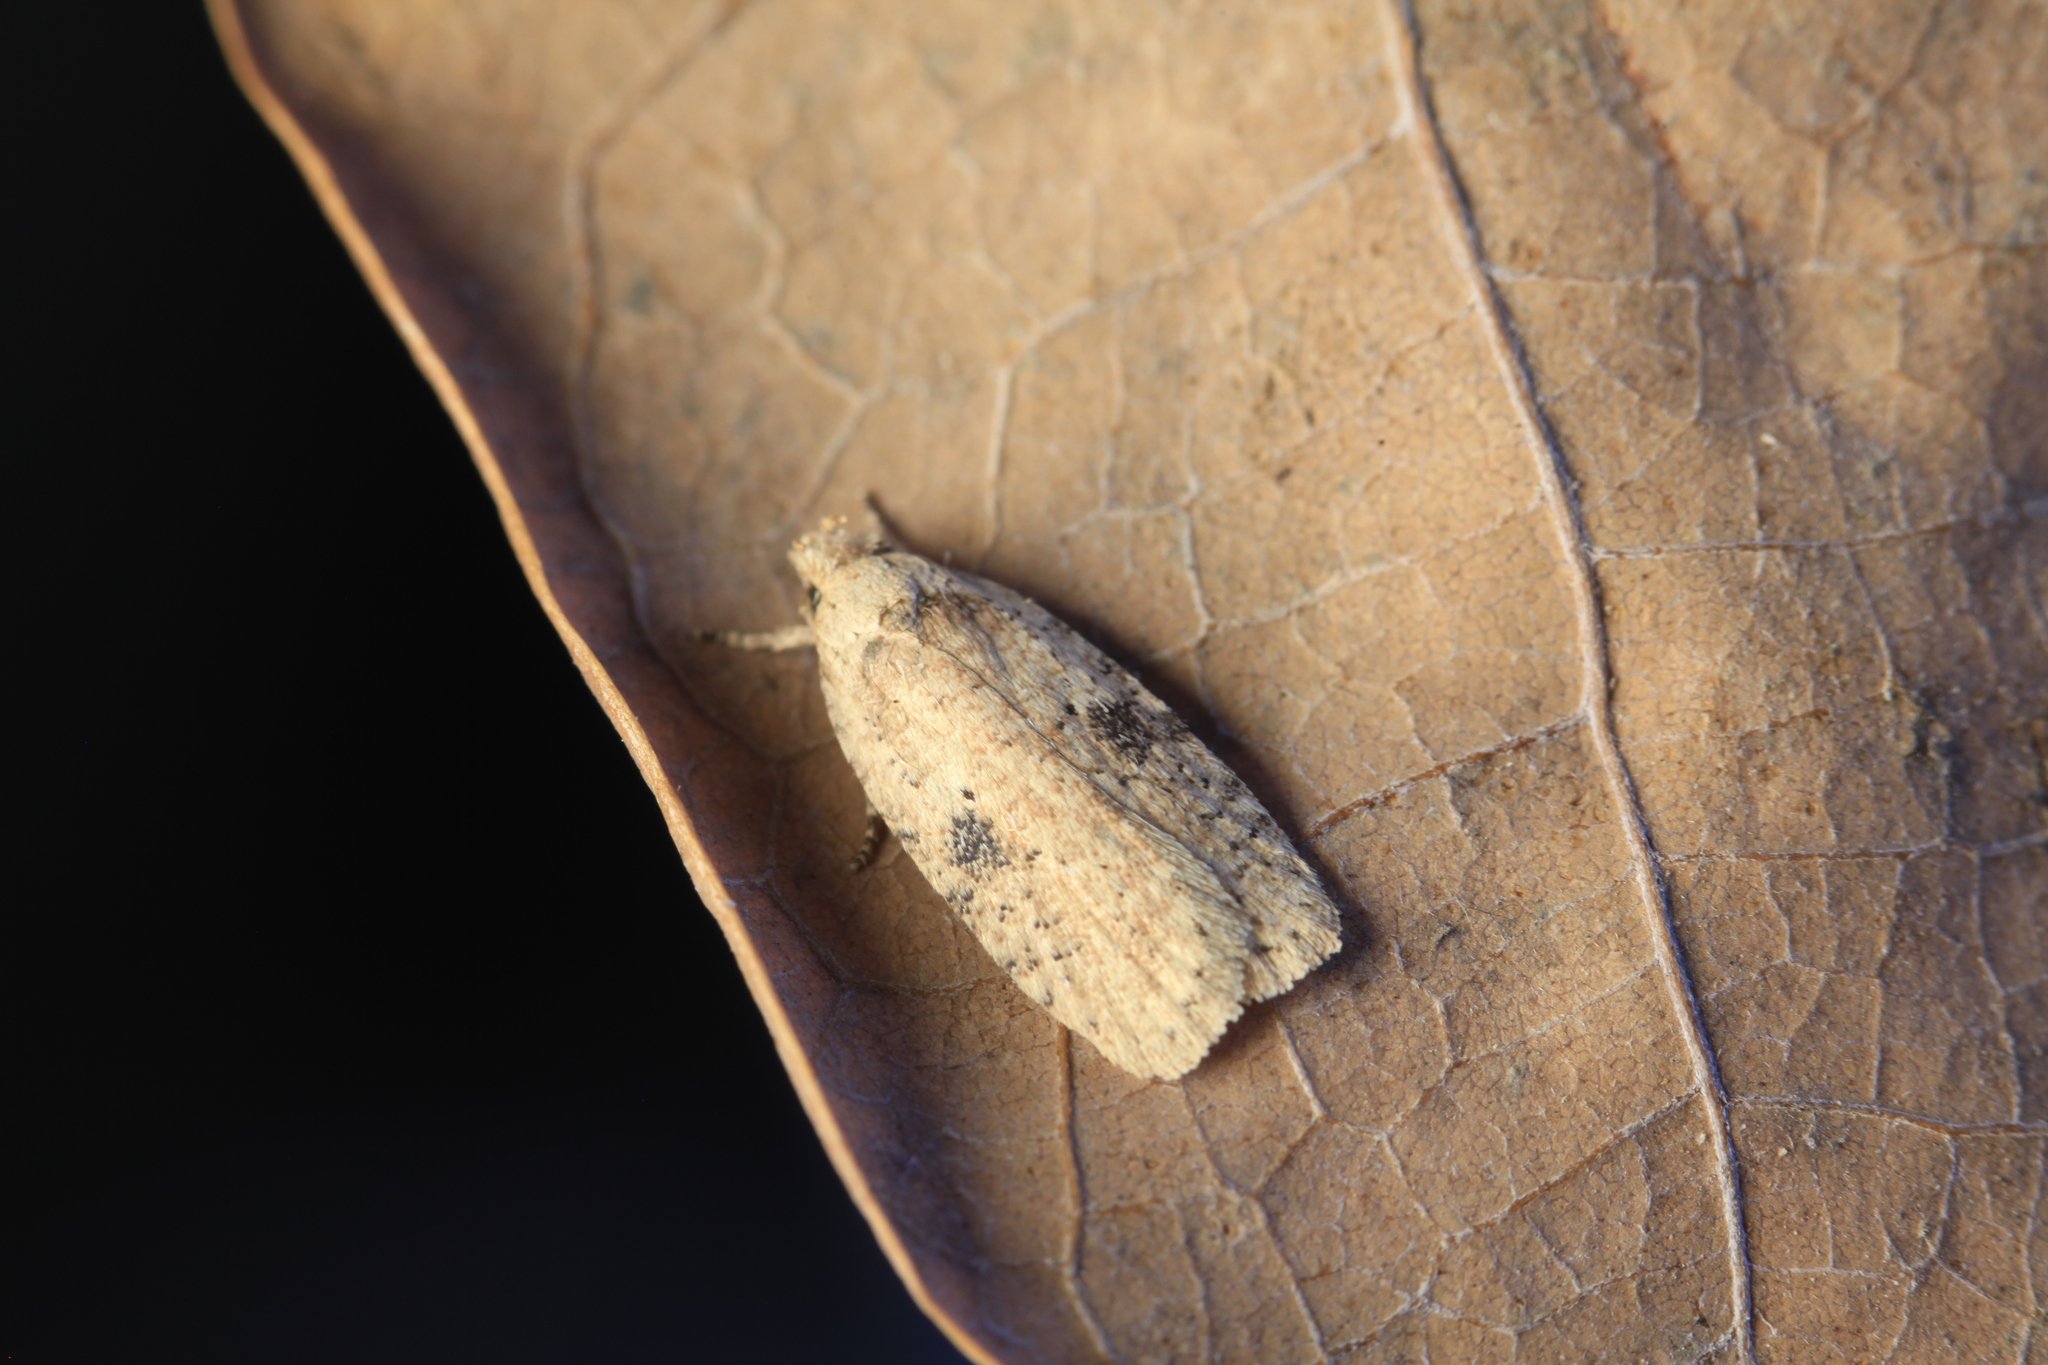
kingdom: Animalia
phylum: Arthropoda
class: Insecta
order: Lepidoptera
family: Depressariidae
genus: Agonopterix
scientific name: Agonopterix propinquella
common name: Black-spot flat-body
